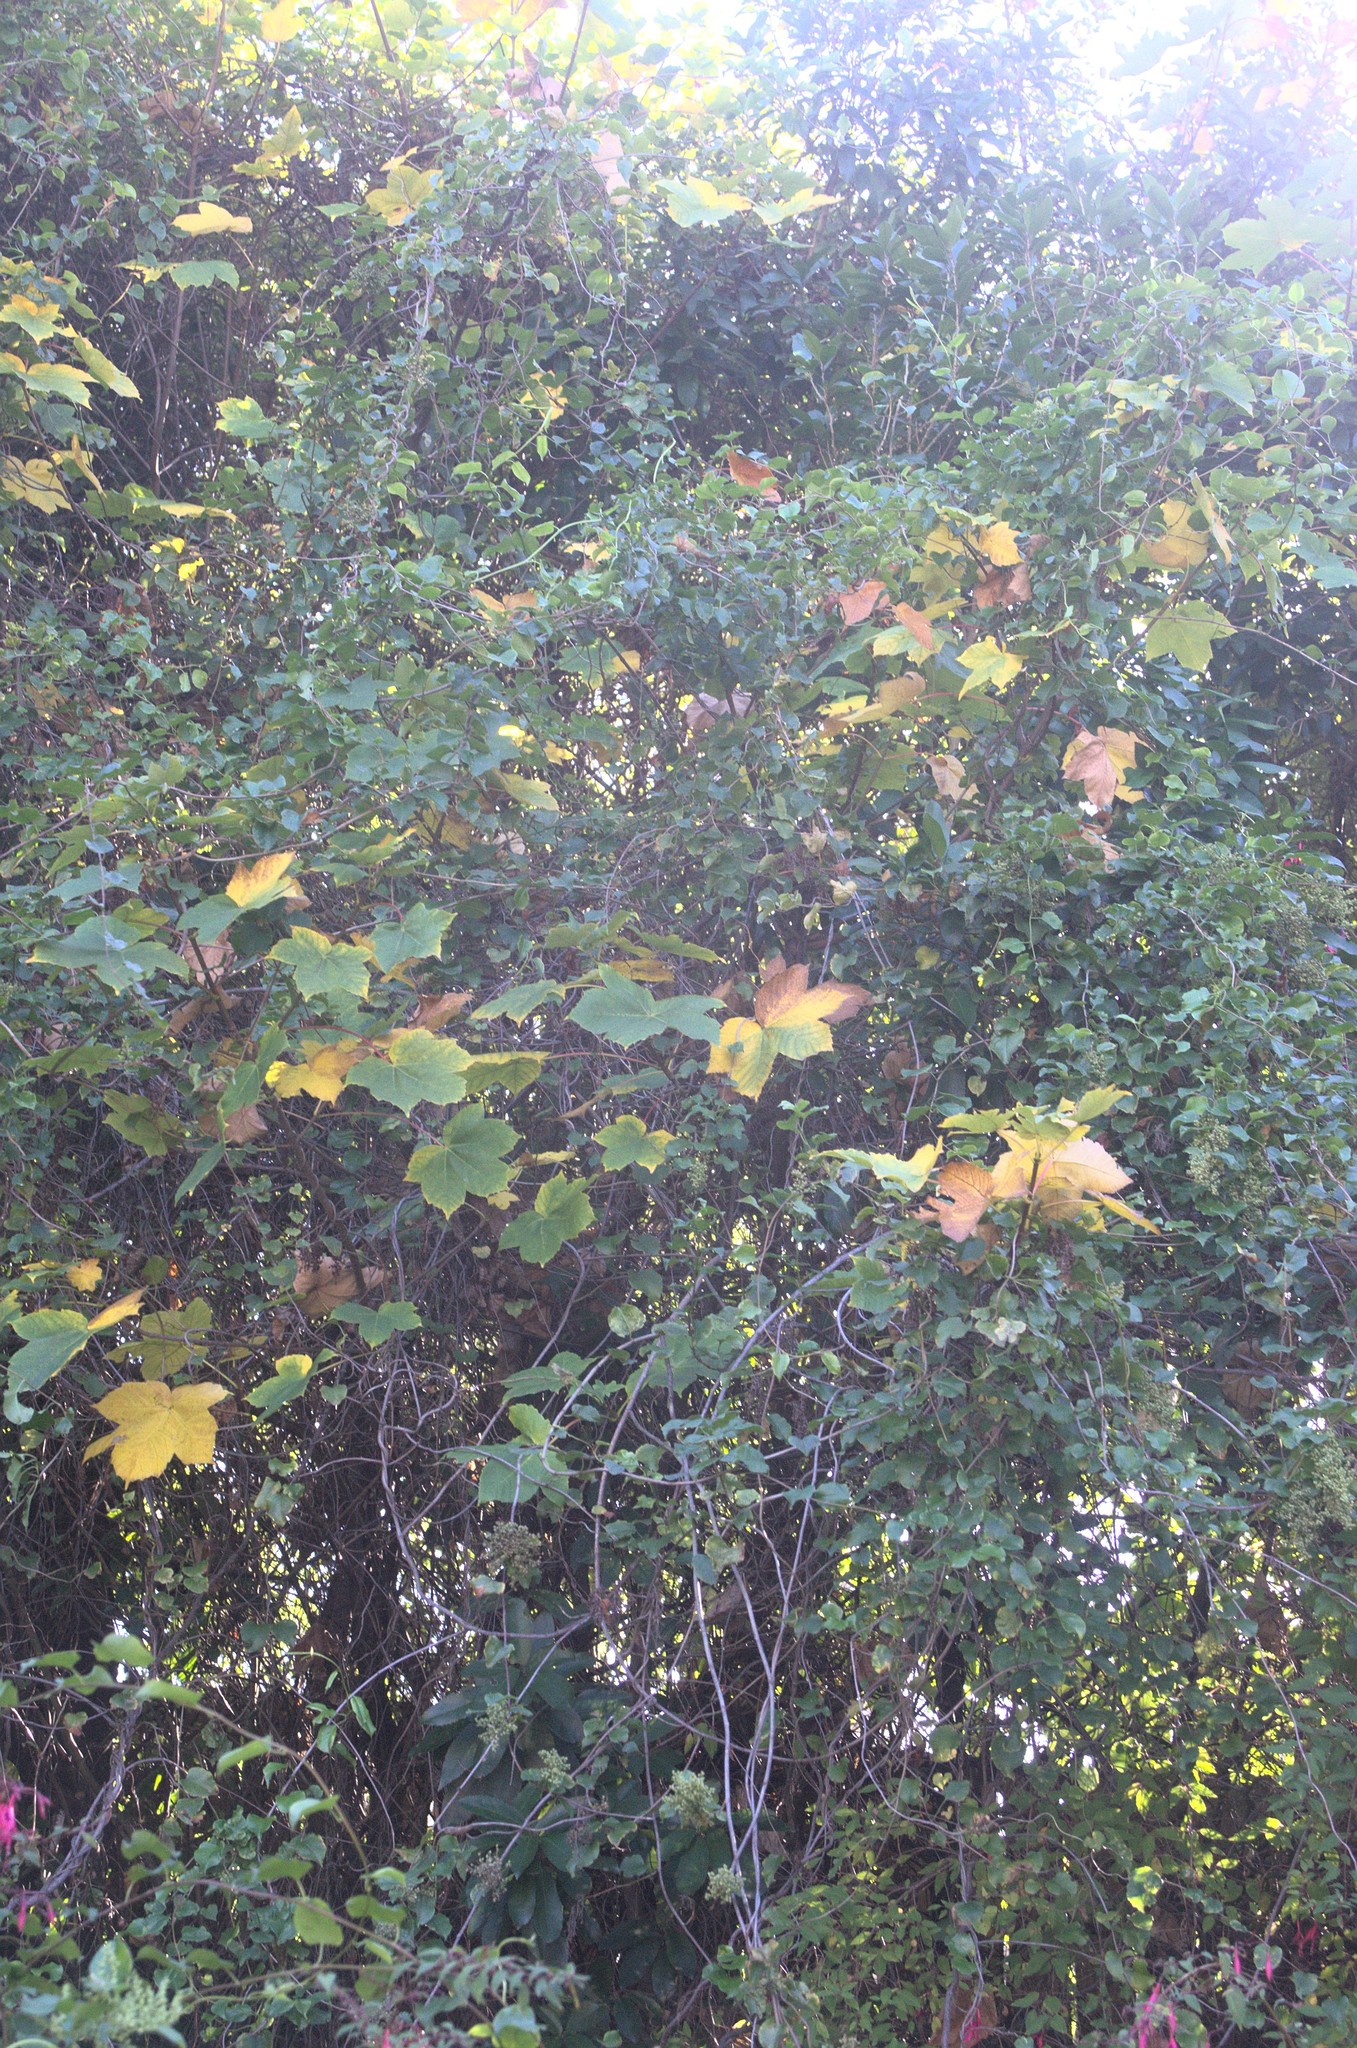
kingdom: Plantae
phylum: Tracheophyta
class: Magnoliopsida
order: Sapindales
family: Sapindaceae
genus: Acer
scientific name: Acer pseudoplatanus
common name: Sycamore
